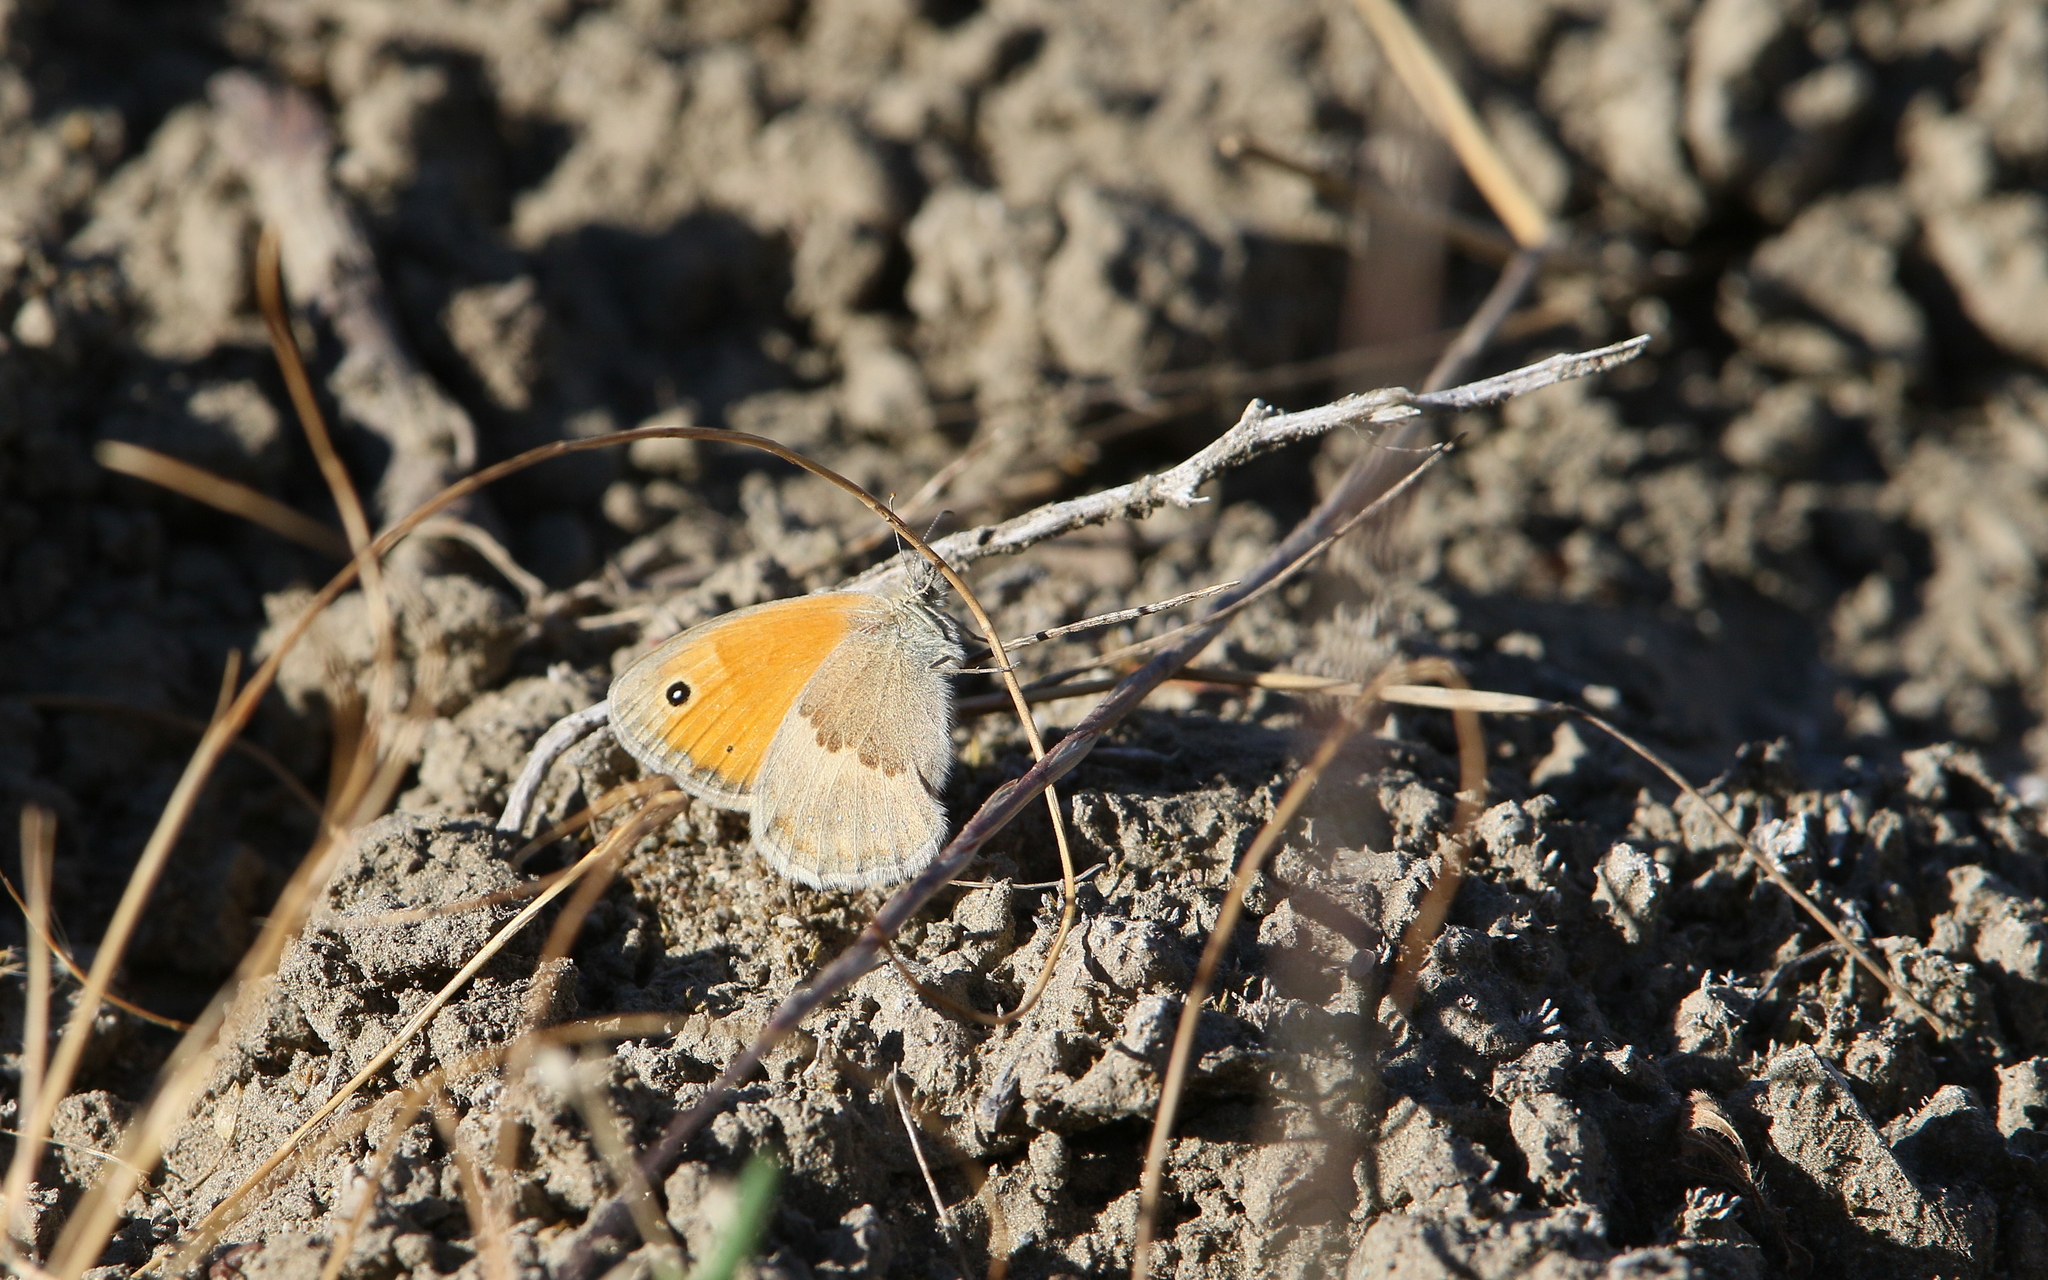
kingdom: Animalia
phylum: Arthropoda
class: Insecta
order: Lepidoptera
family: Nymphalidae
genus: Coenonympha
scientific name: Coenonympha pamphilus
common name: Small heath
